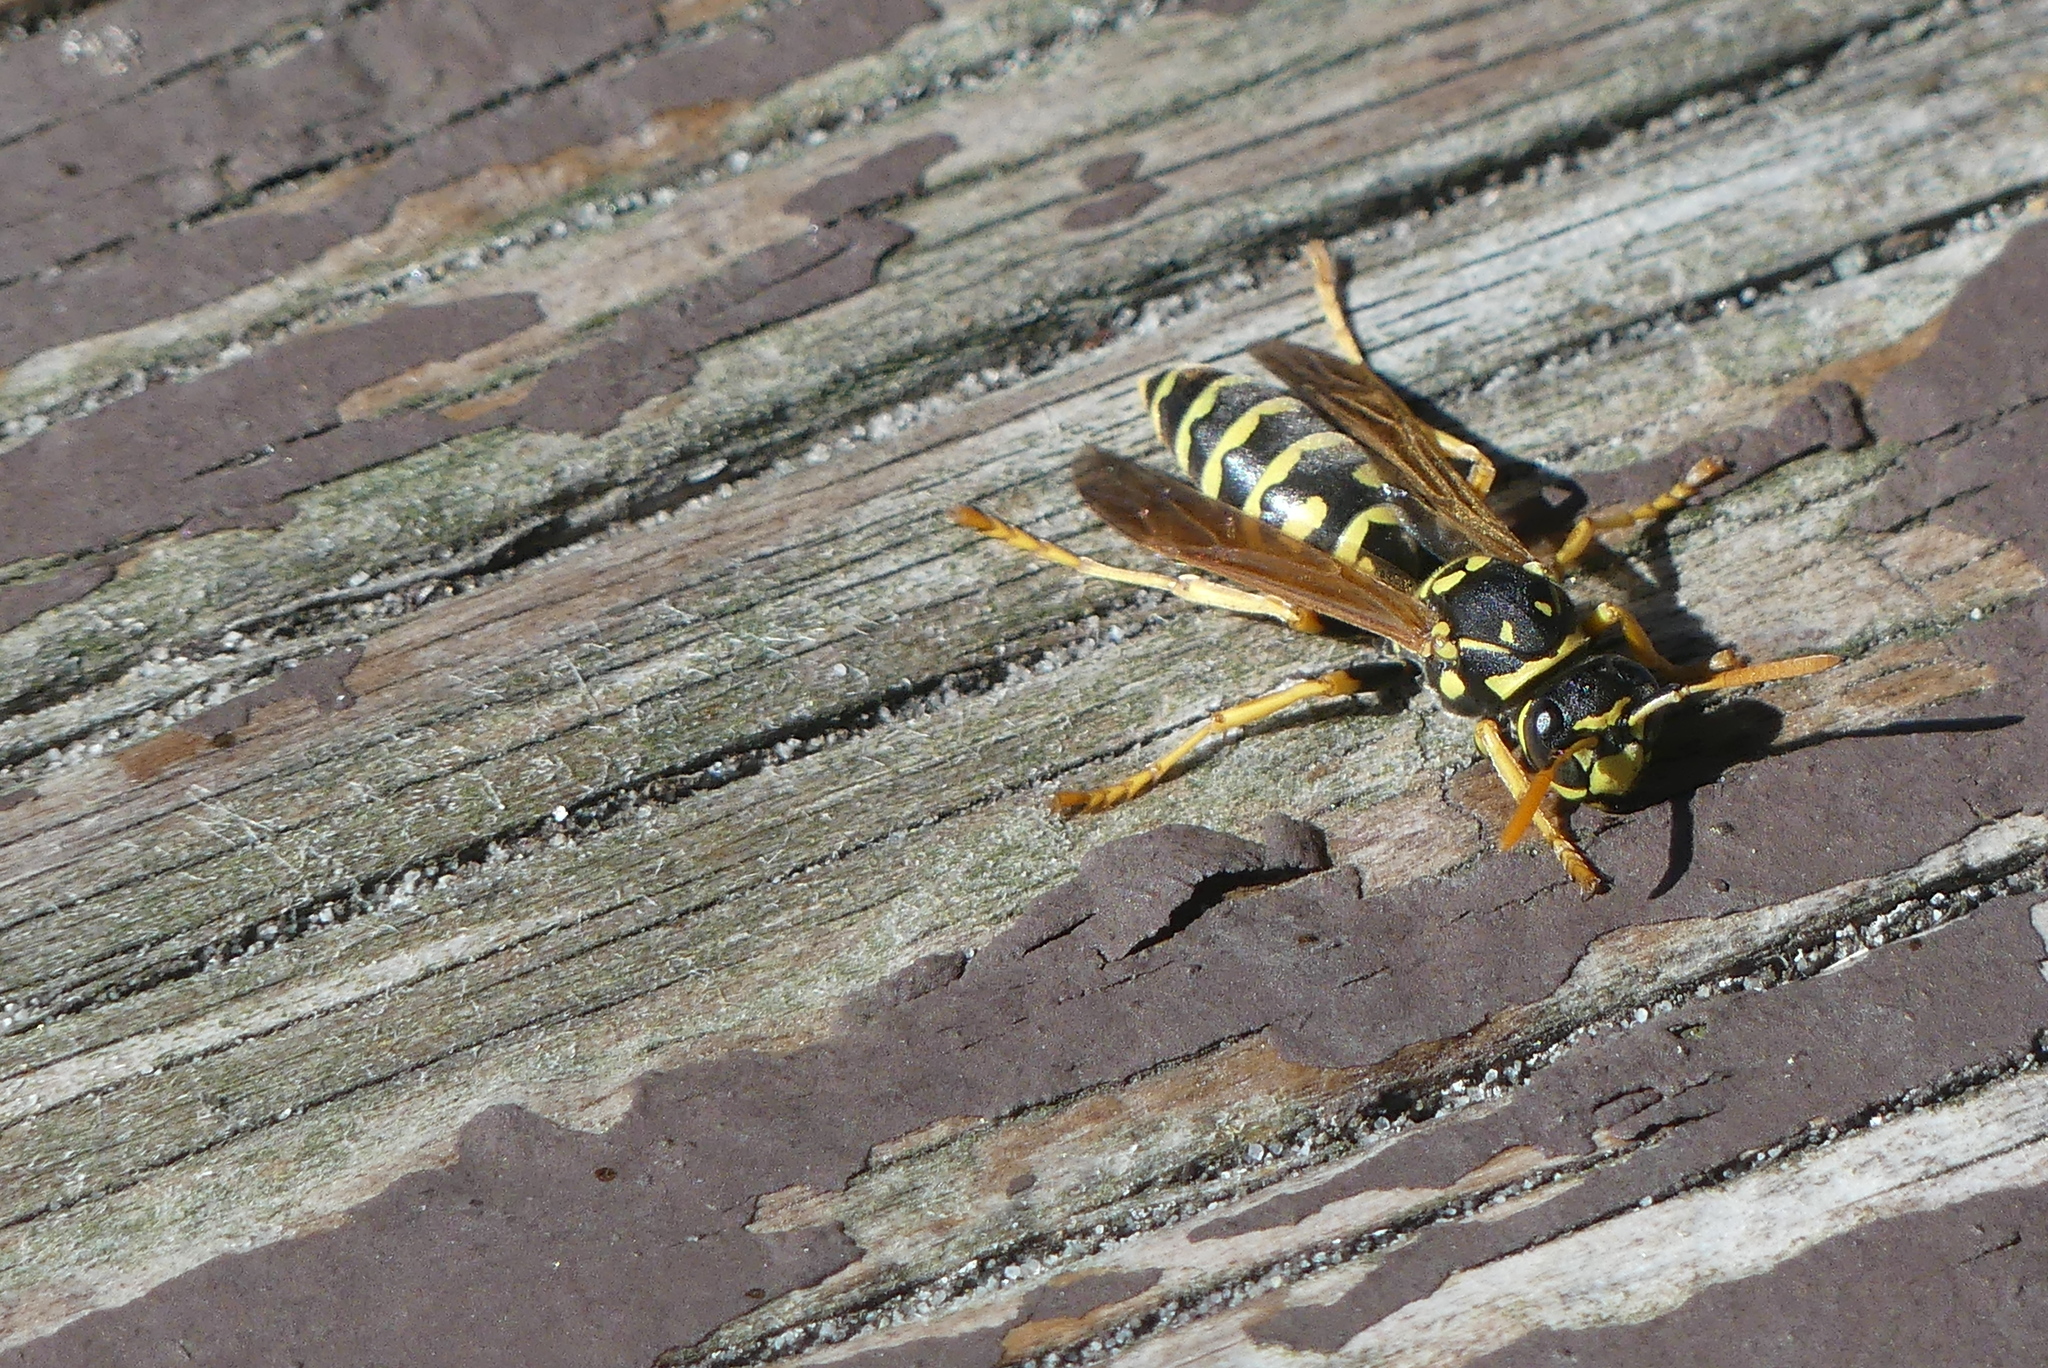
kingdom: Animalia
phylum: Arthropoda
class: Insecta
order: Hymenoptera
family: Eumenidae
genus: Polistes
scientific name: Polistes dominula
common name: Paper wasp
